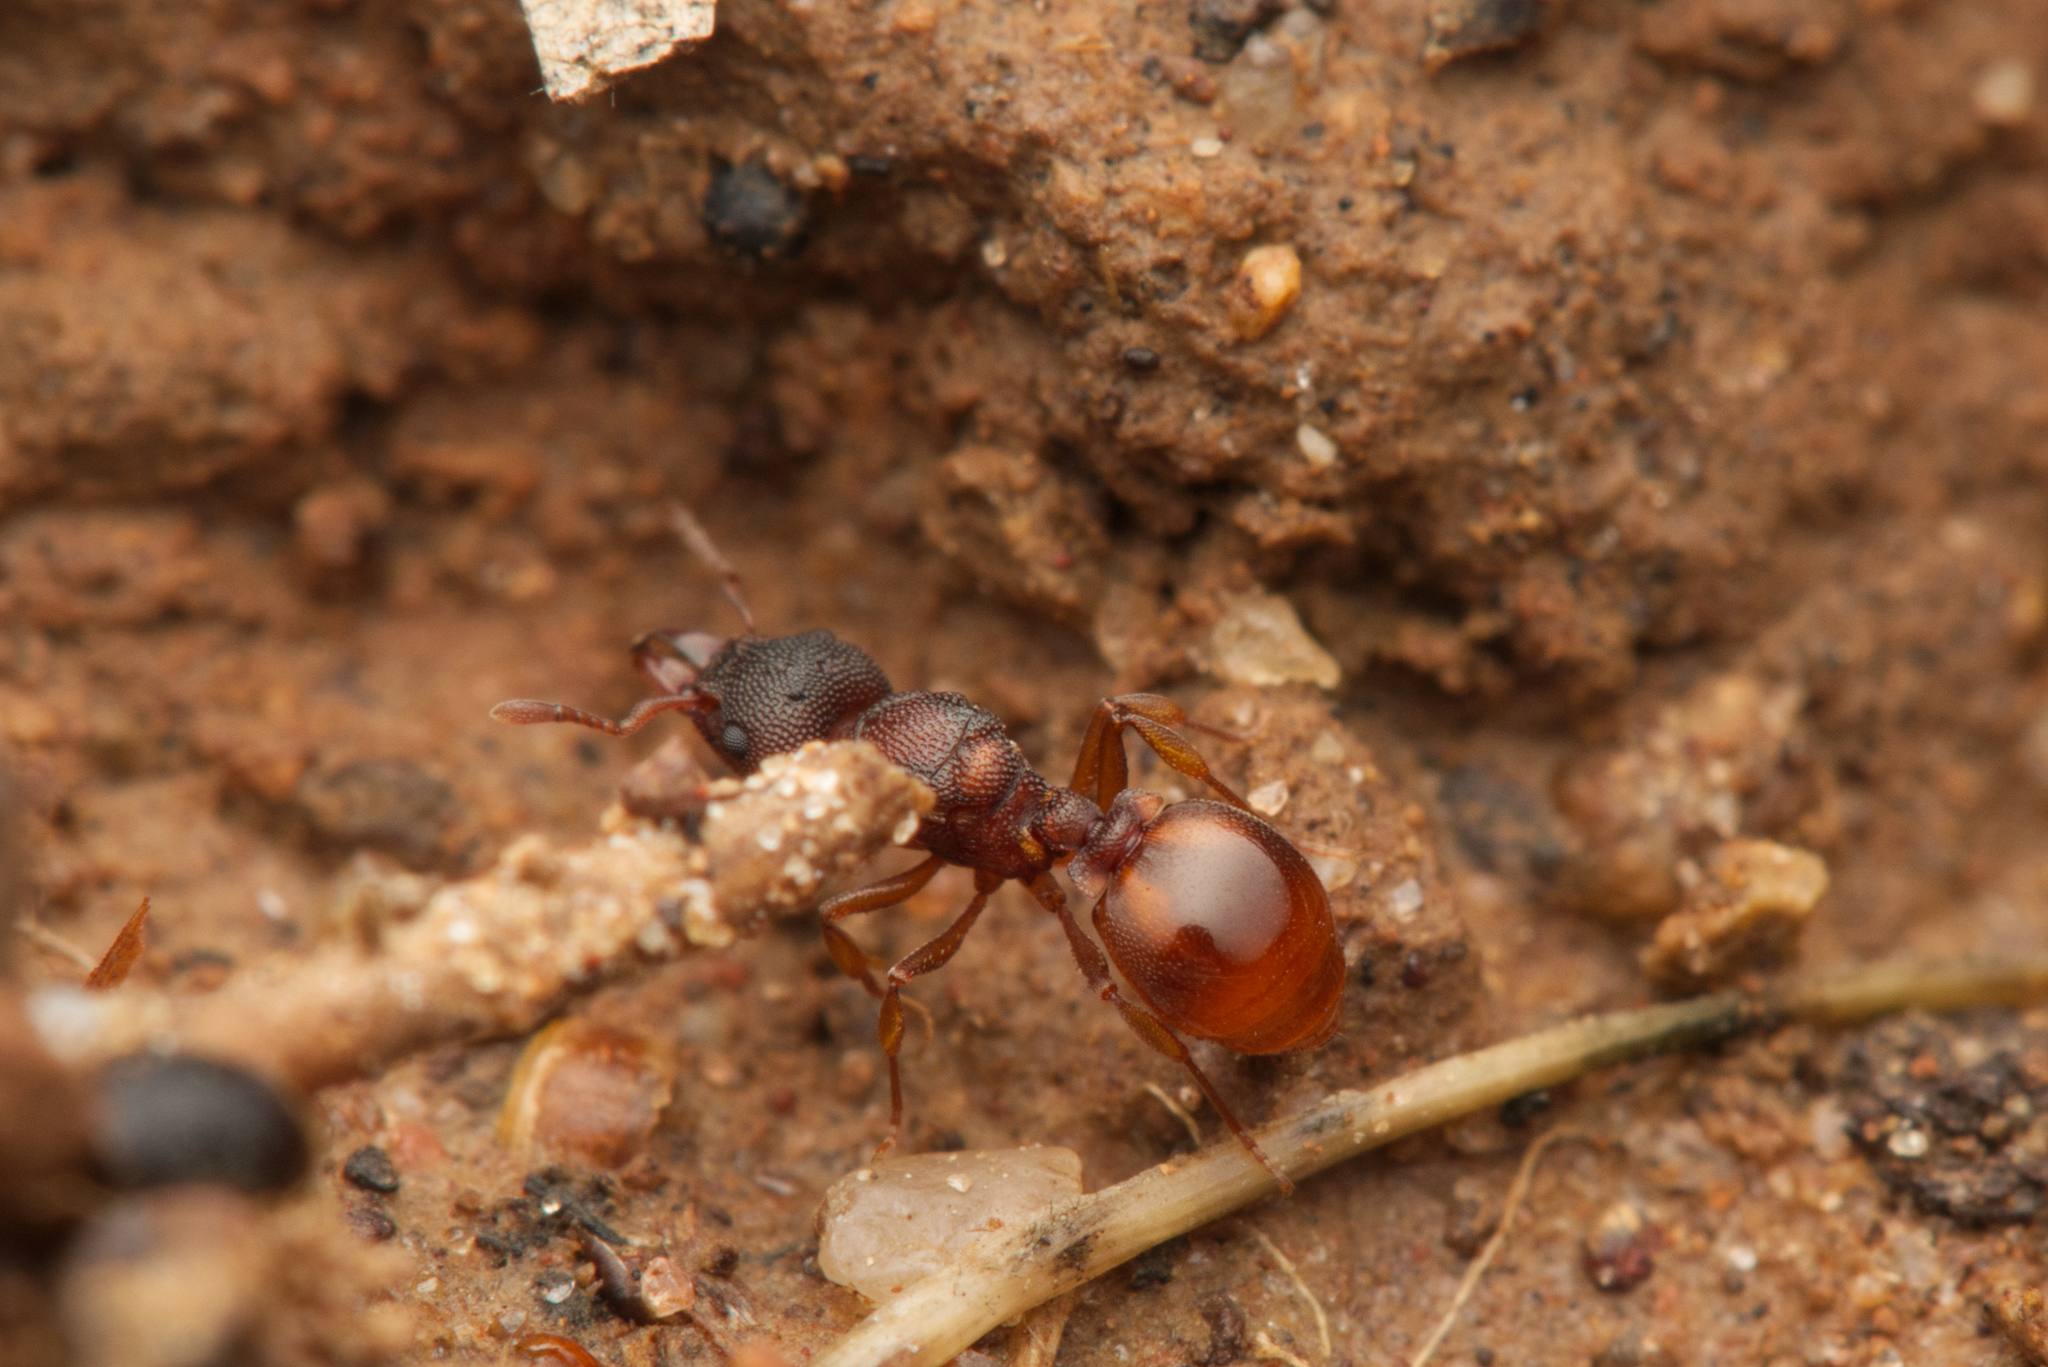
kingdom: Animalia
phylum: Arthropoda
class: Insecta
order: Hymenoptera
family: Formicidae
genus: Mesostruma
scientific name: Mesostruma turneri
